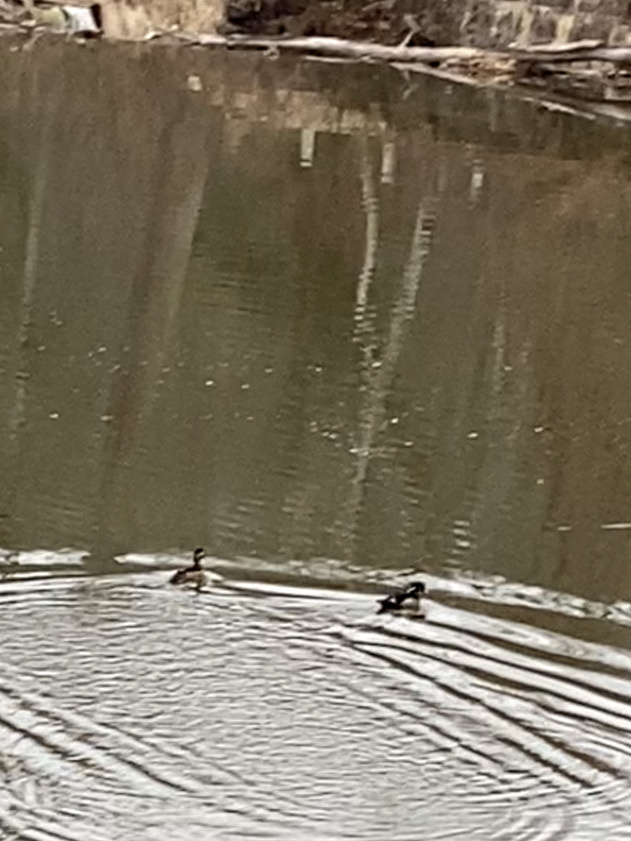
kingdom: Animalia
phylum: Chordata
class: Aves
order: Anseriformes
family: Anatidae
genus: Aix
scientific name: Aix sponsa
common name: Wood duck
